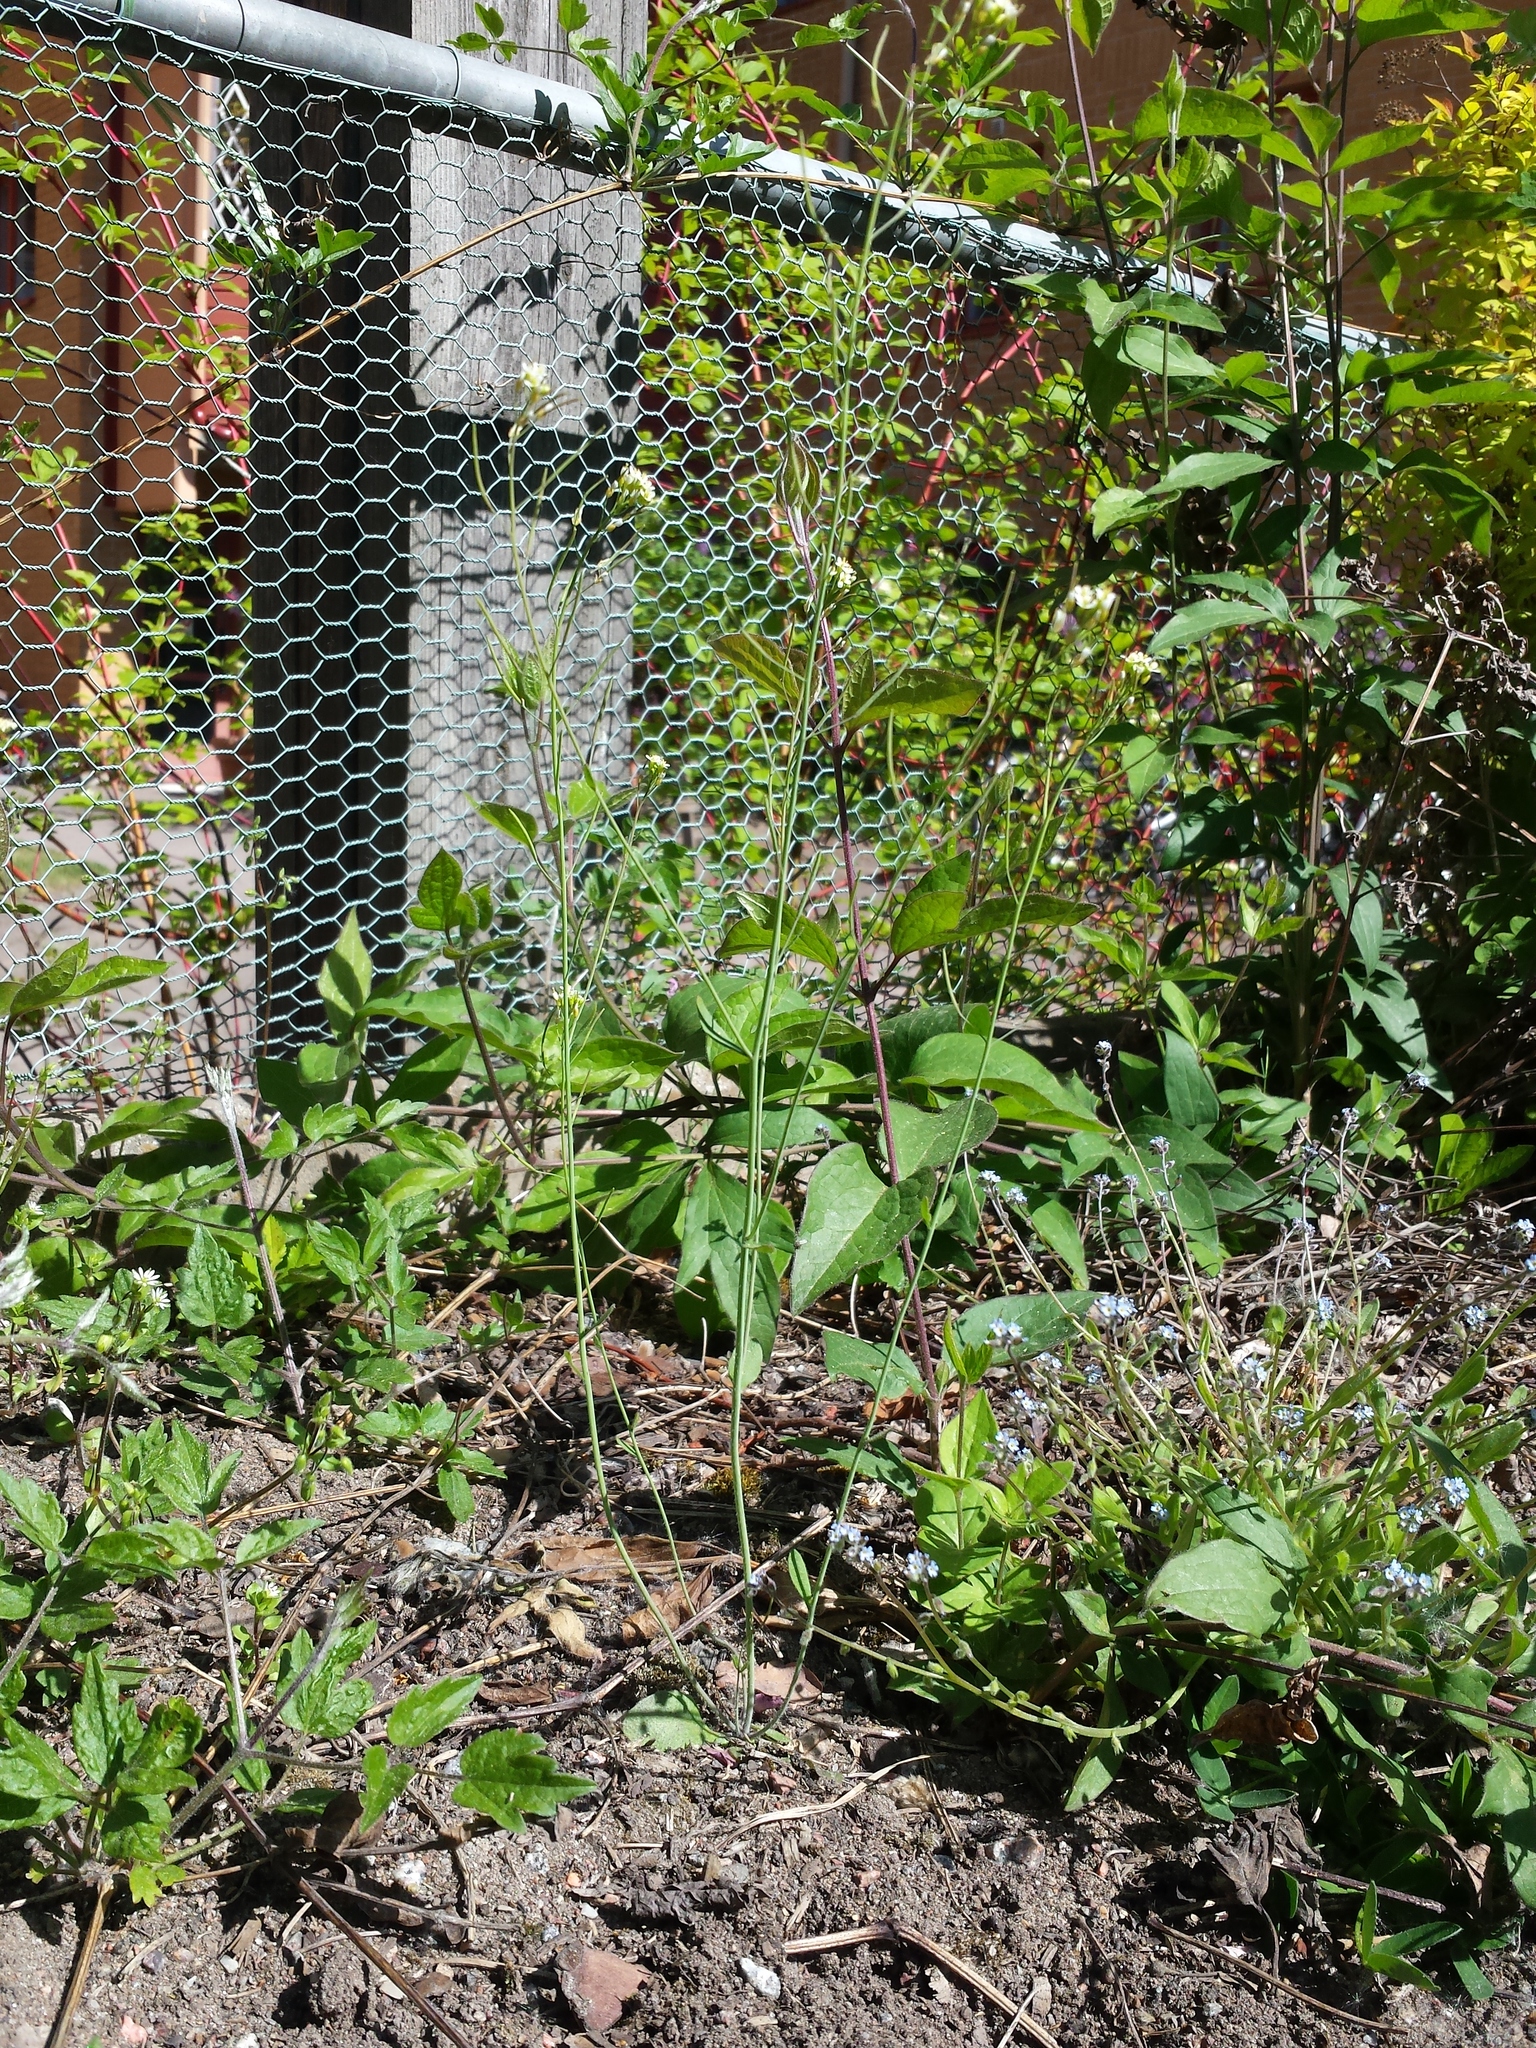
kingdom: Plantae
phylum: Tracheophyta
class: Magnoliopsida
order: Brassicales
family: Brassicaceae
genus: Arabidopsis
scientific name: Arabidopsis thaliana
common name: Thale cress
